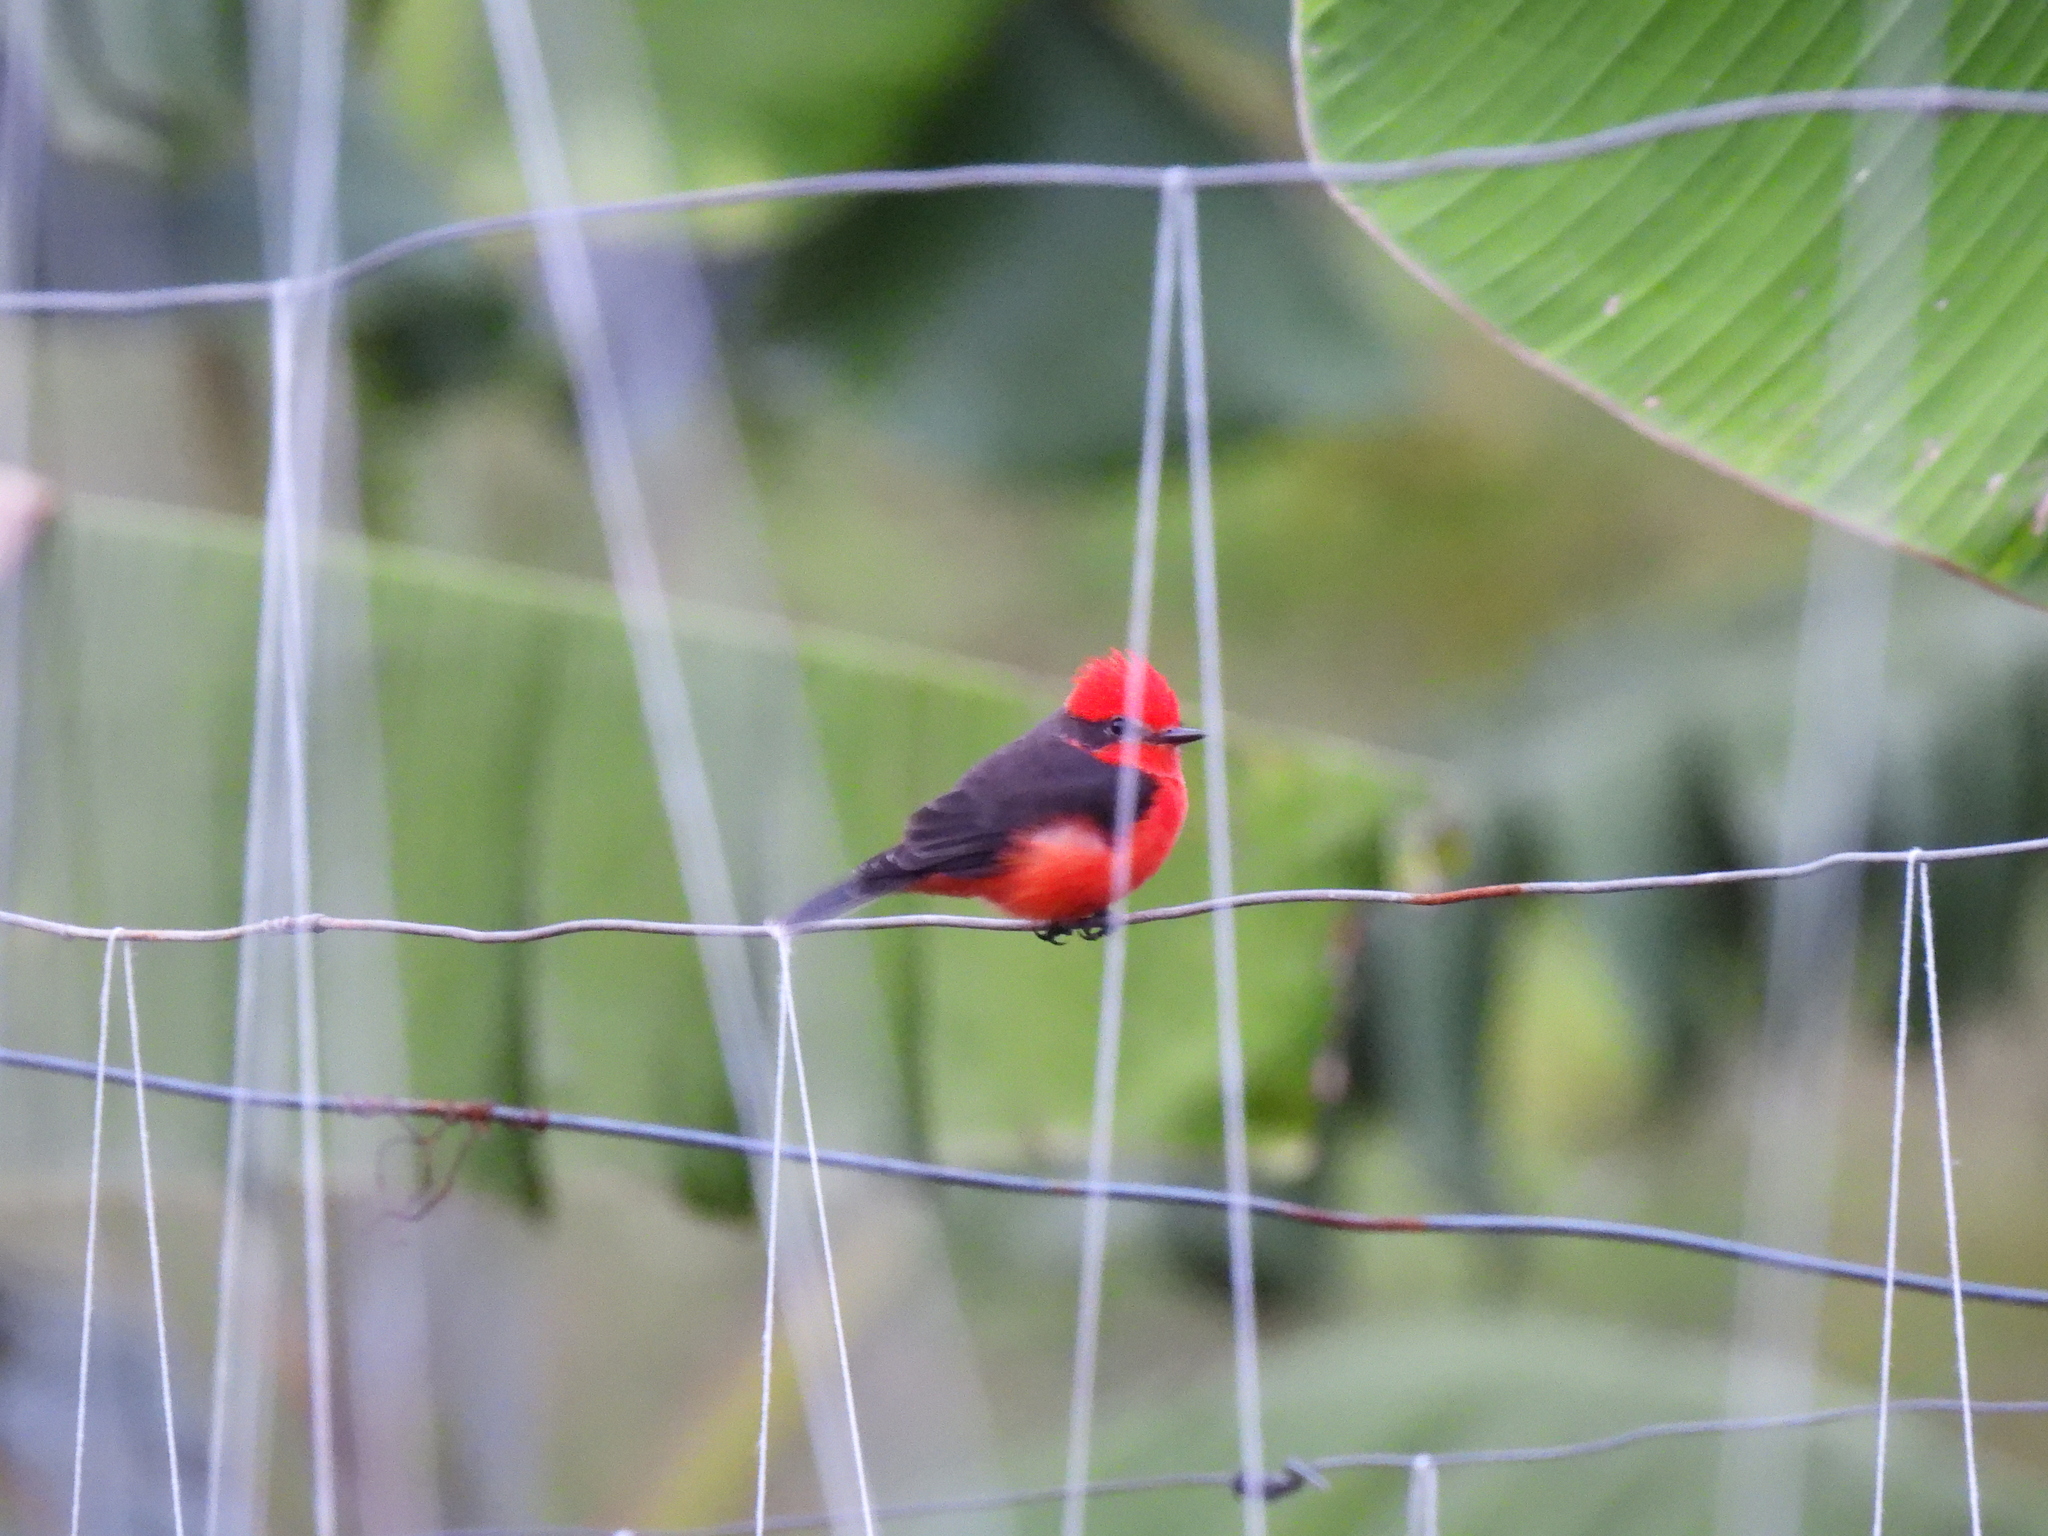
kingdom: Animalia
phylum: Chordata
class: Aves
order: Passeriformes
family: Tyrannidae
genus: Pyrocephalus
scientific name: Pyrocephalus rubinus
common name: Vermilion flycatcher
